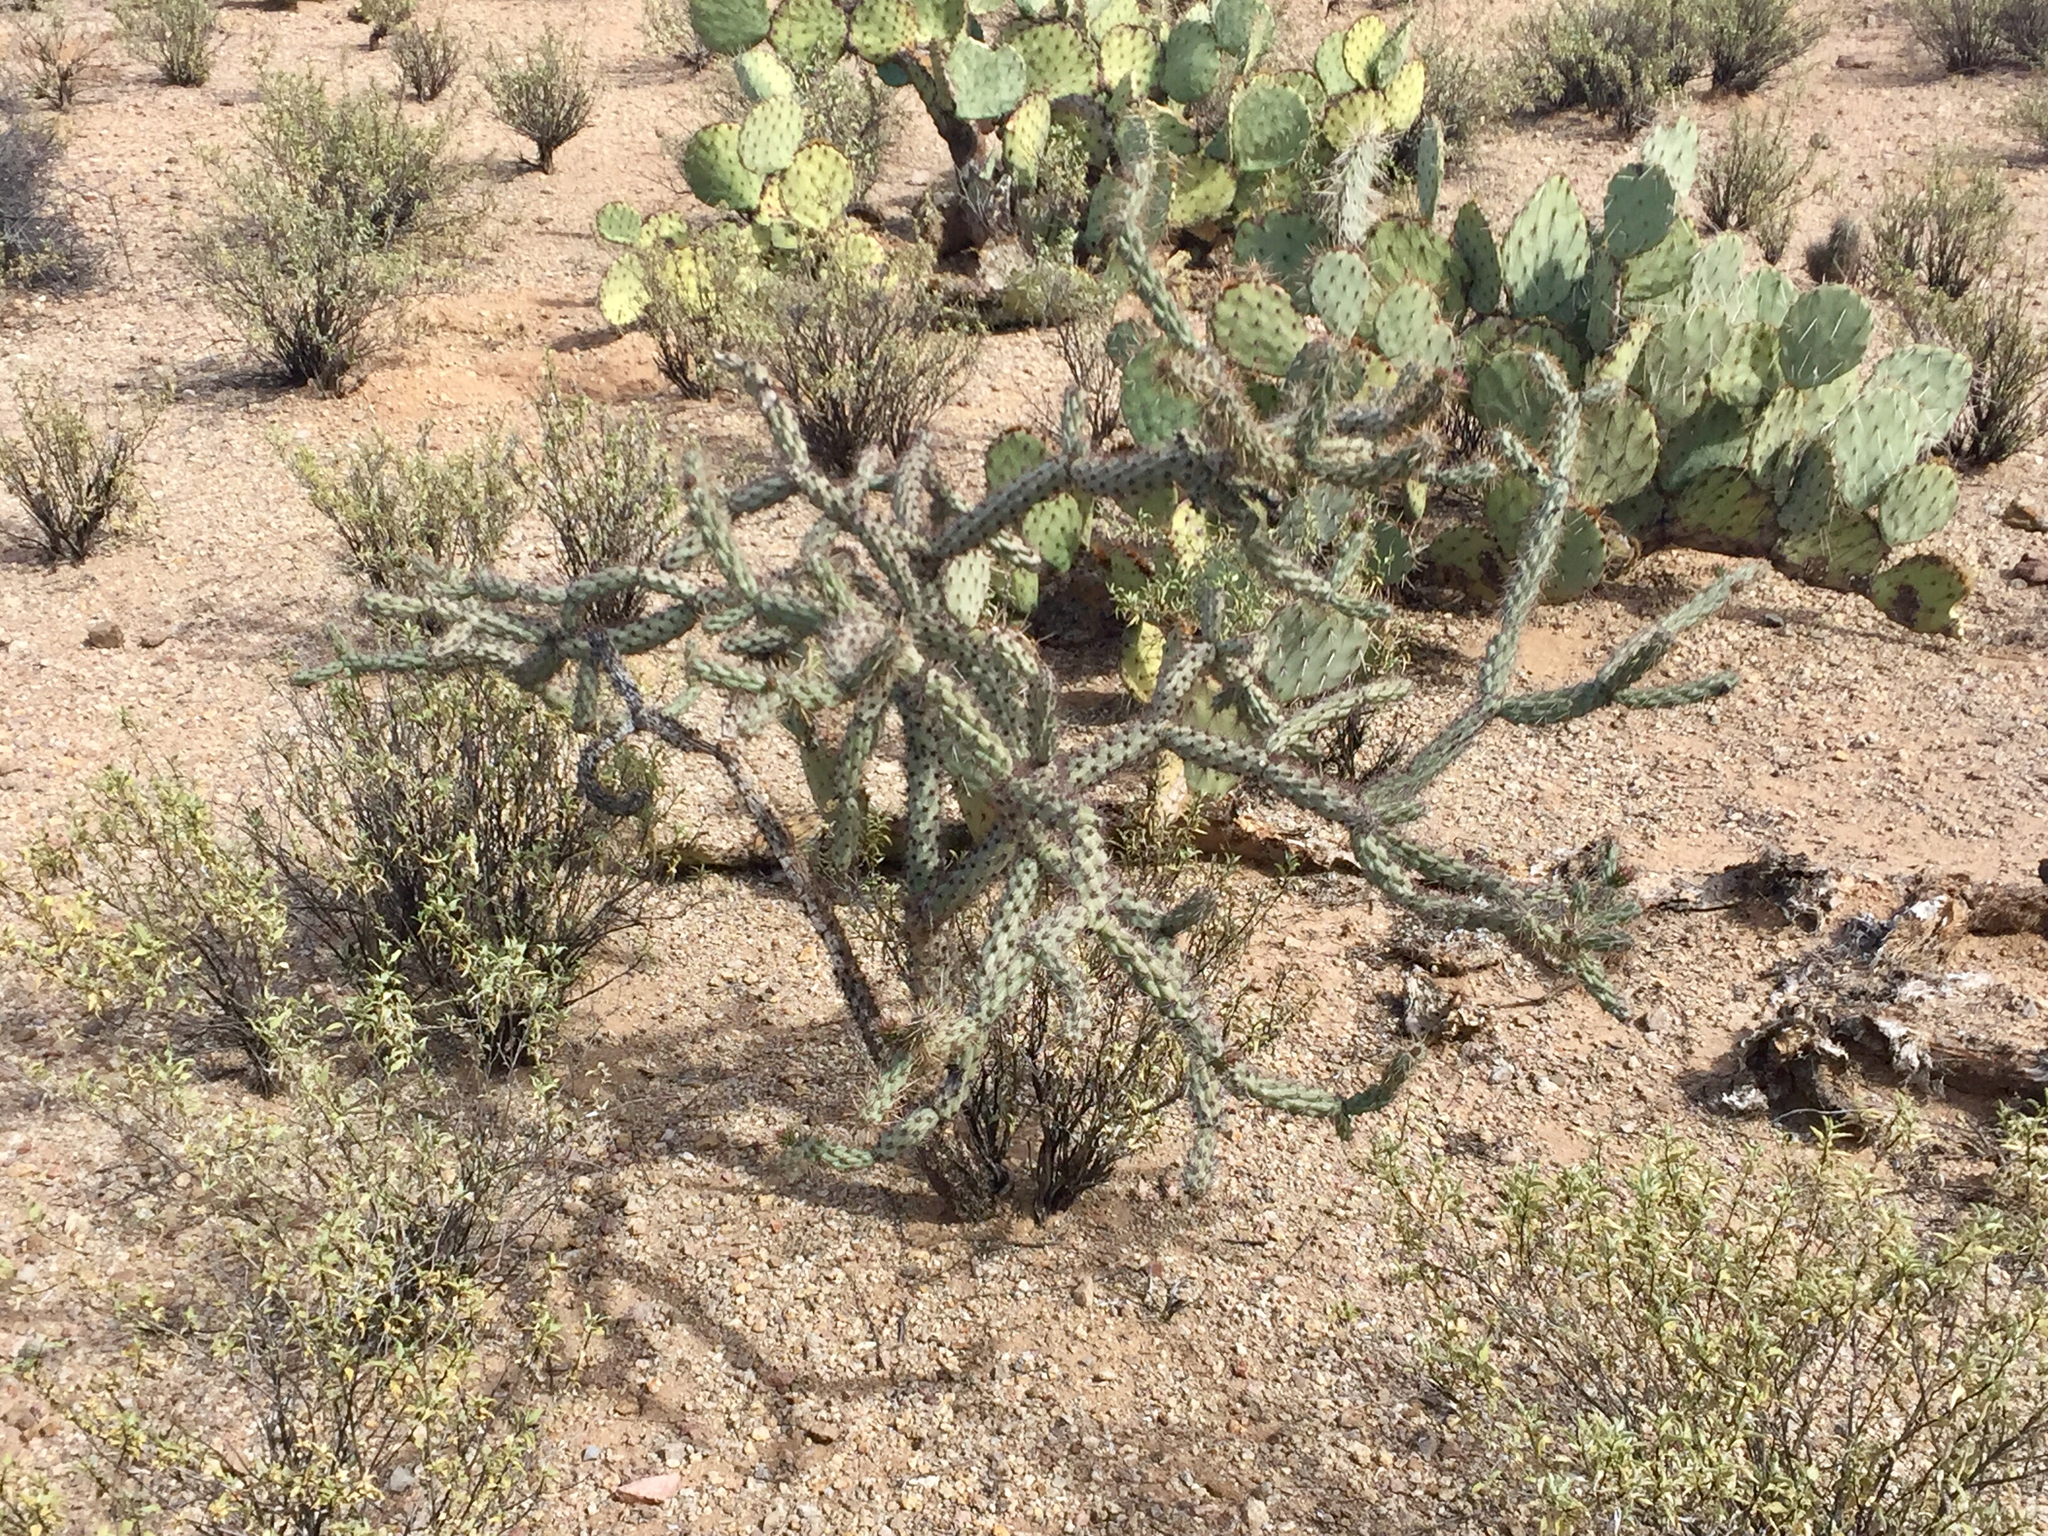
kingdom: Plantae
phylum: Tracheophyta
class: Magnoliopsida
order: Caryophyllales
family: Cactaceae
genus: Cylindropuntia
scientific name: Cylindropuntia acanthocarpa
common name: Buckhorn cholla
